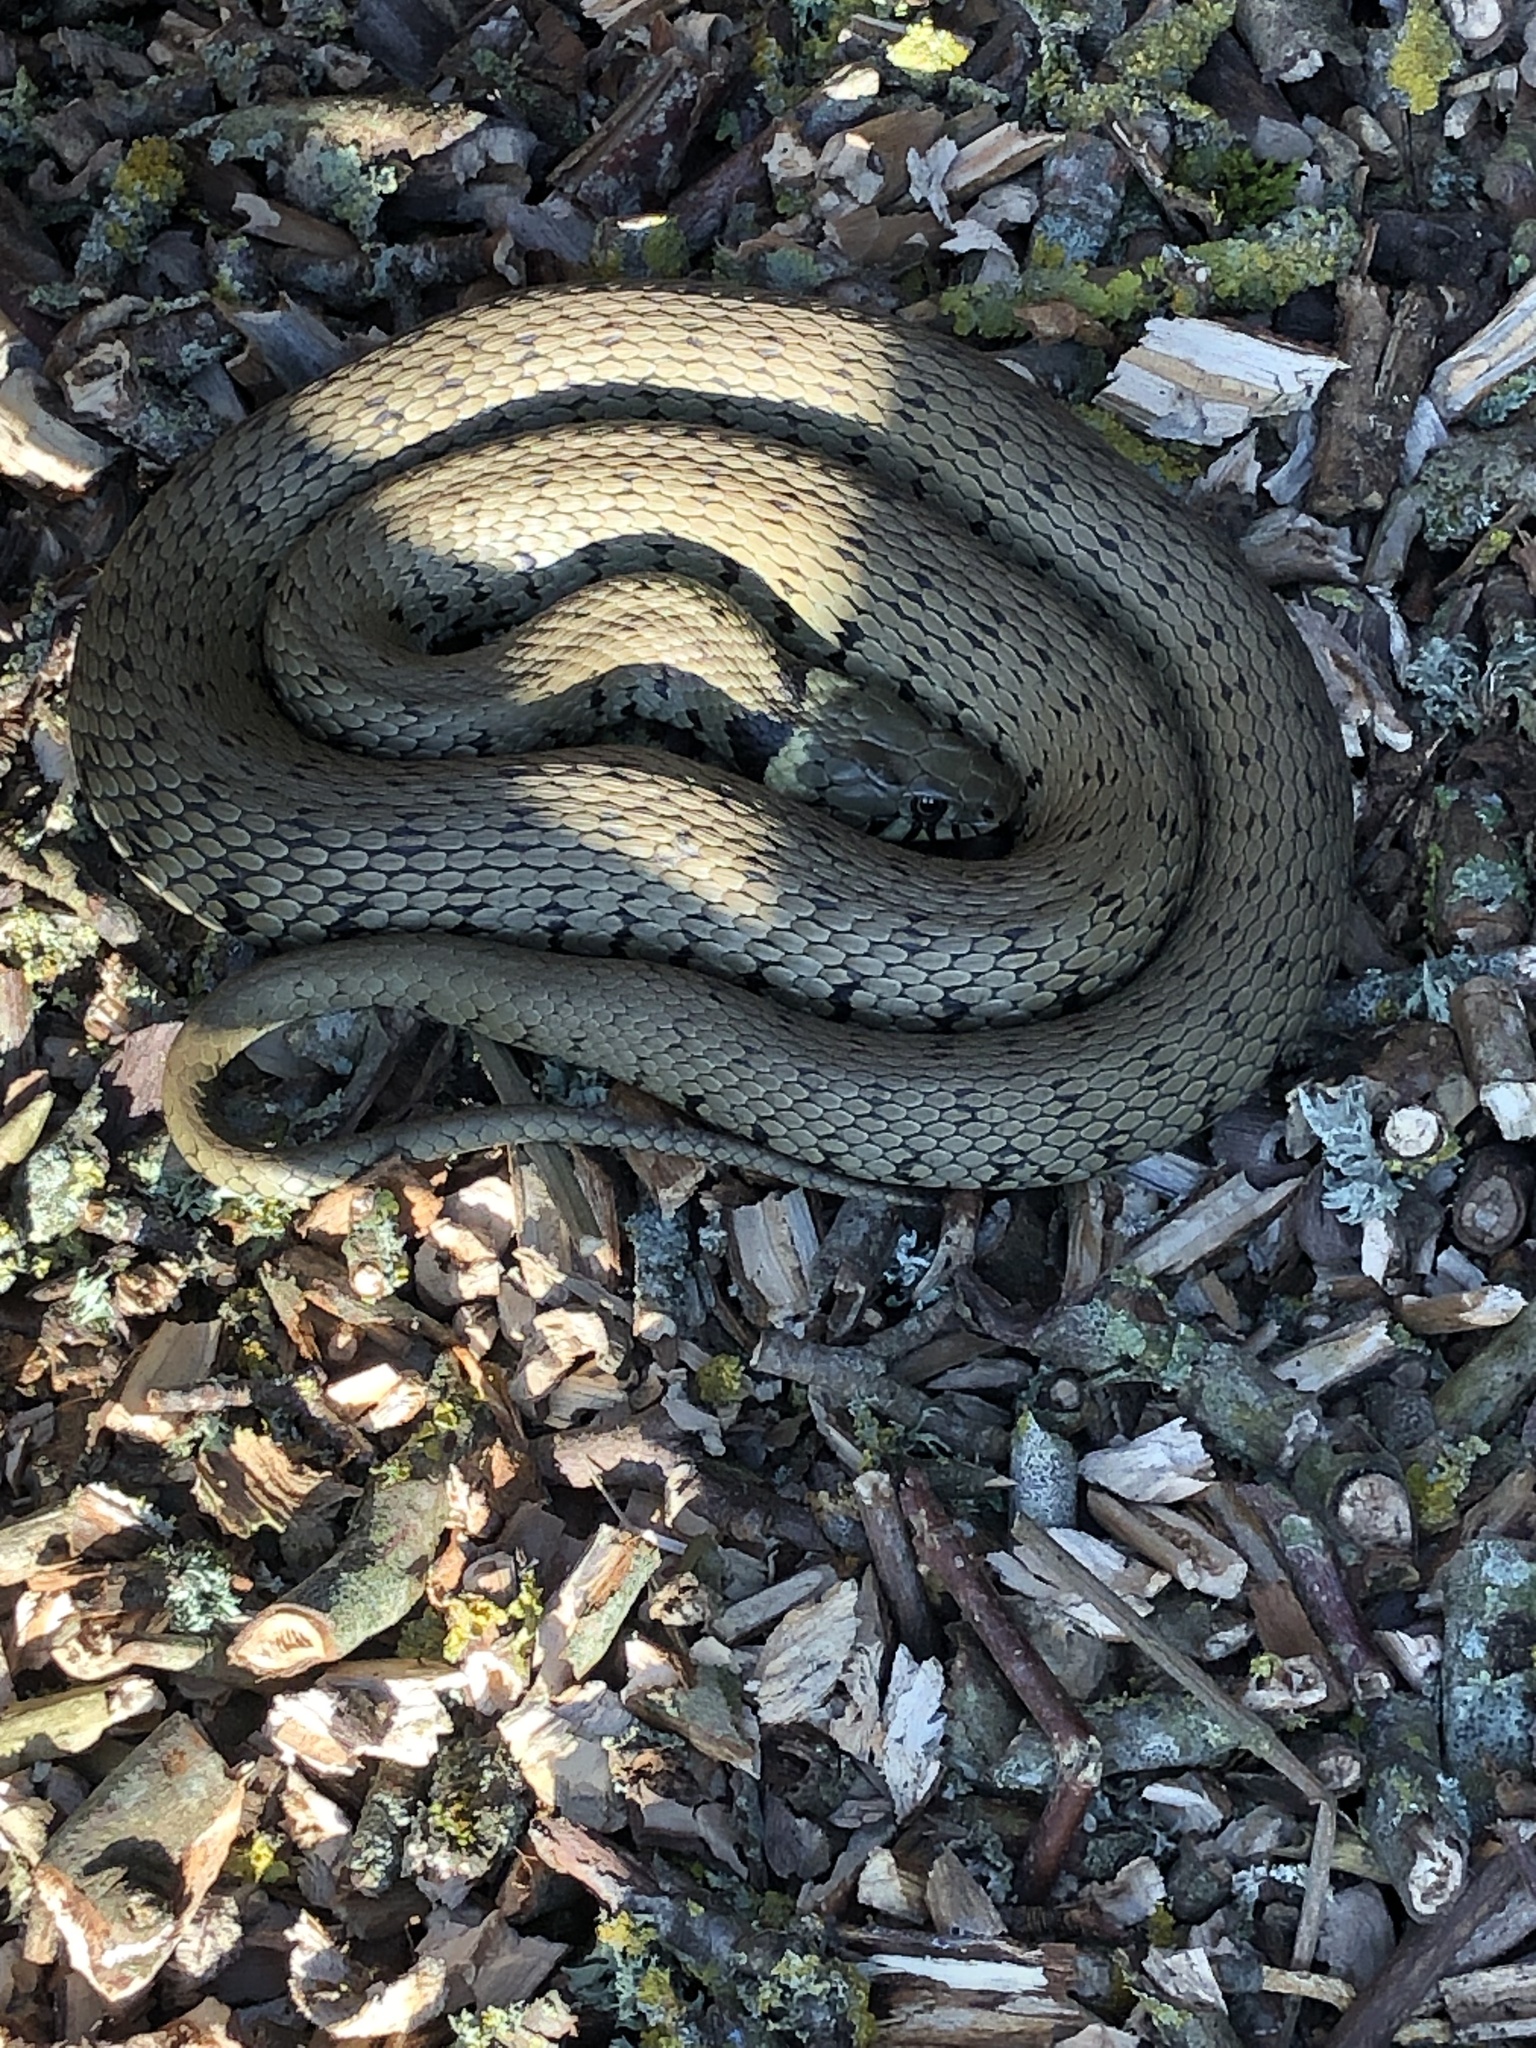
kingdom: Animalia
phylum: Chordata
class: Squamata
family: Colubridae
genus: Natrix
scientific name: Natrix helvetica
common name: Banded grass snake
